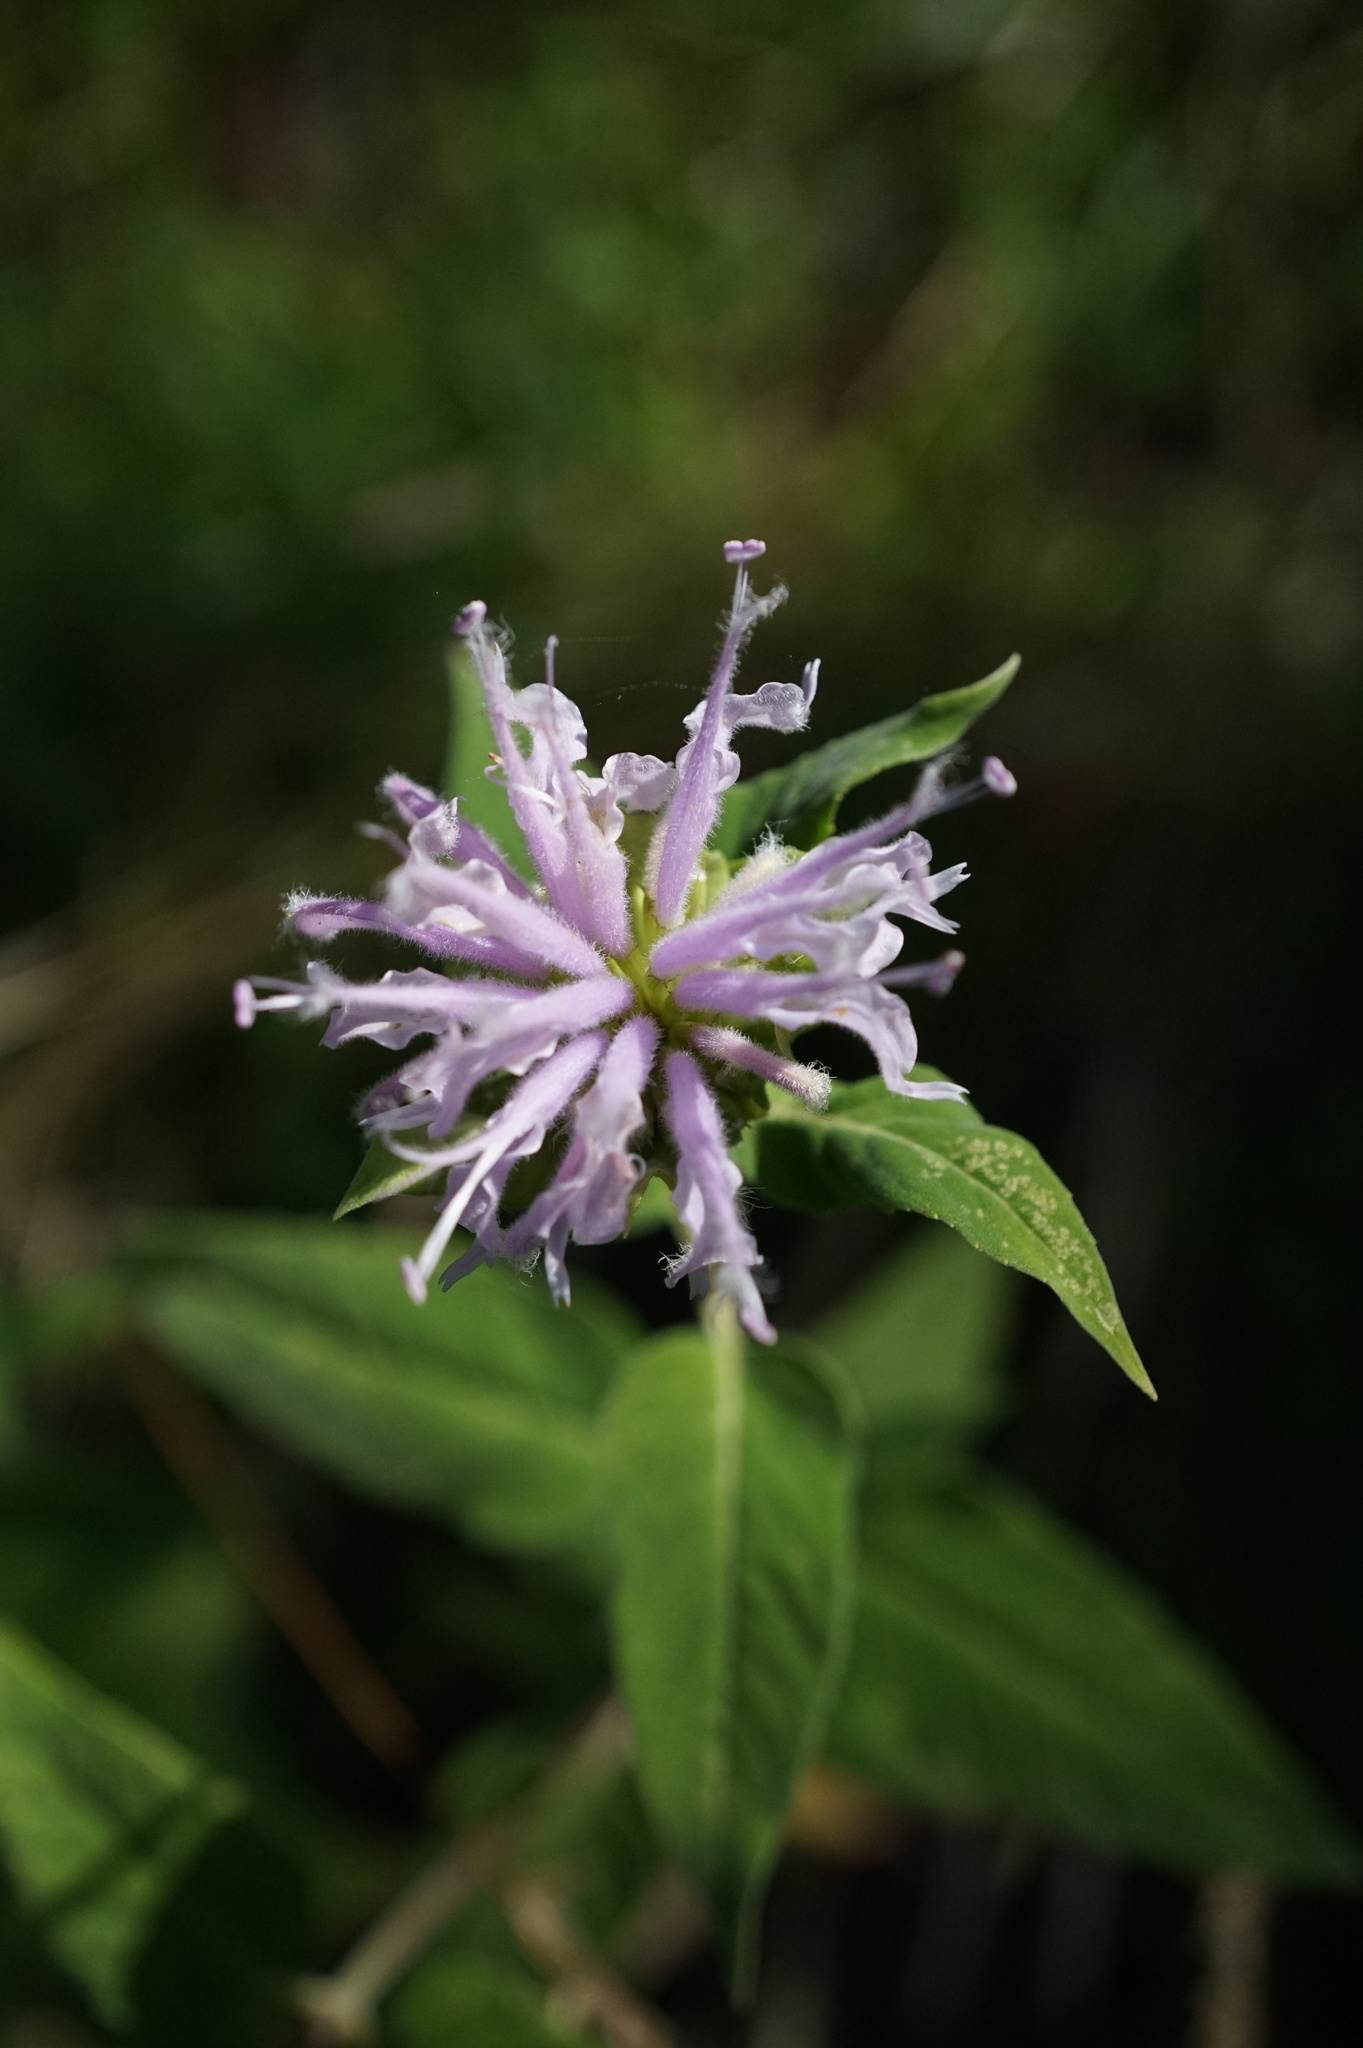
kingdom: Plantae
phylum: Tracheophyta
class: Magnoliopsida
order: Lamiales
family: Lamiaceae
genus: Monarda
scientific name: Monarda fistulosa
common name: Purple beebalm
